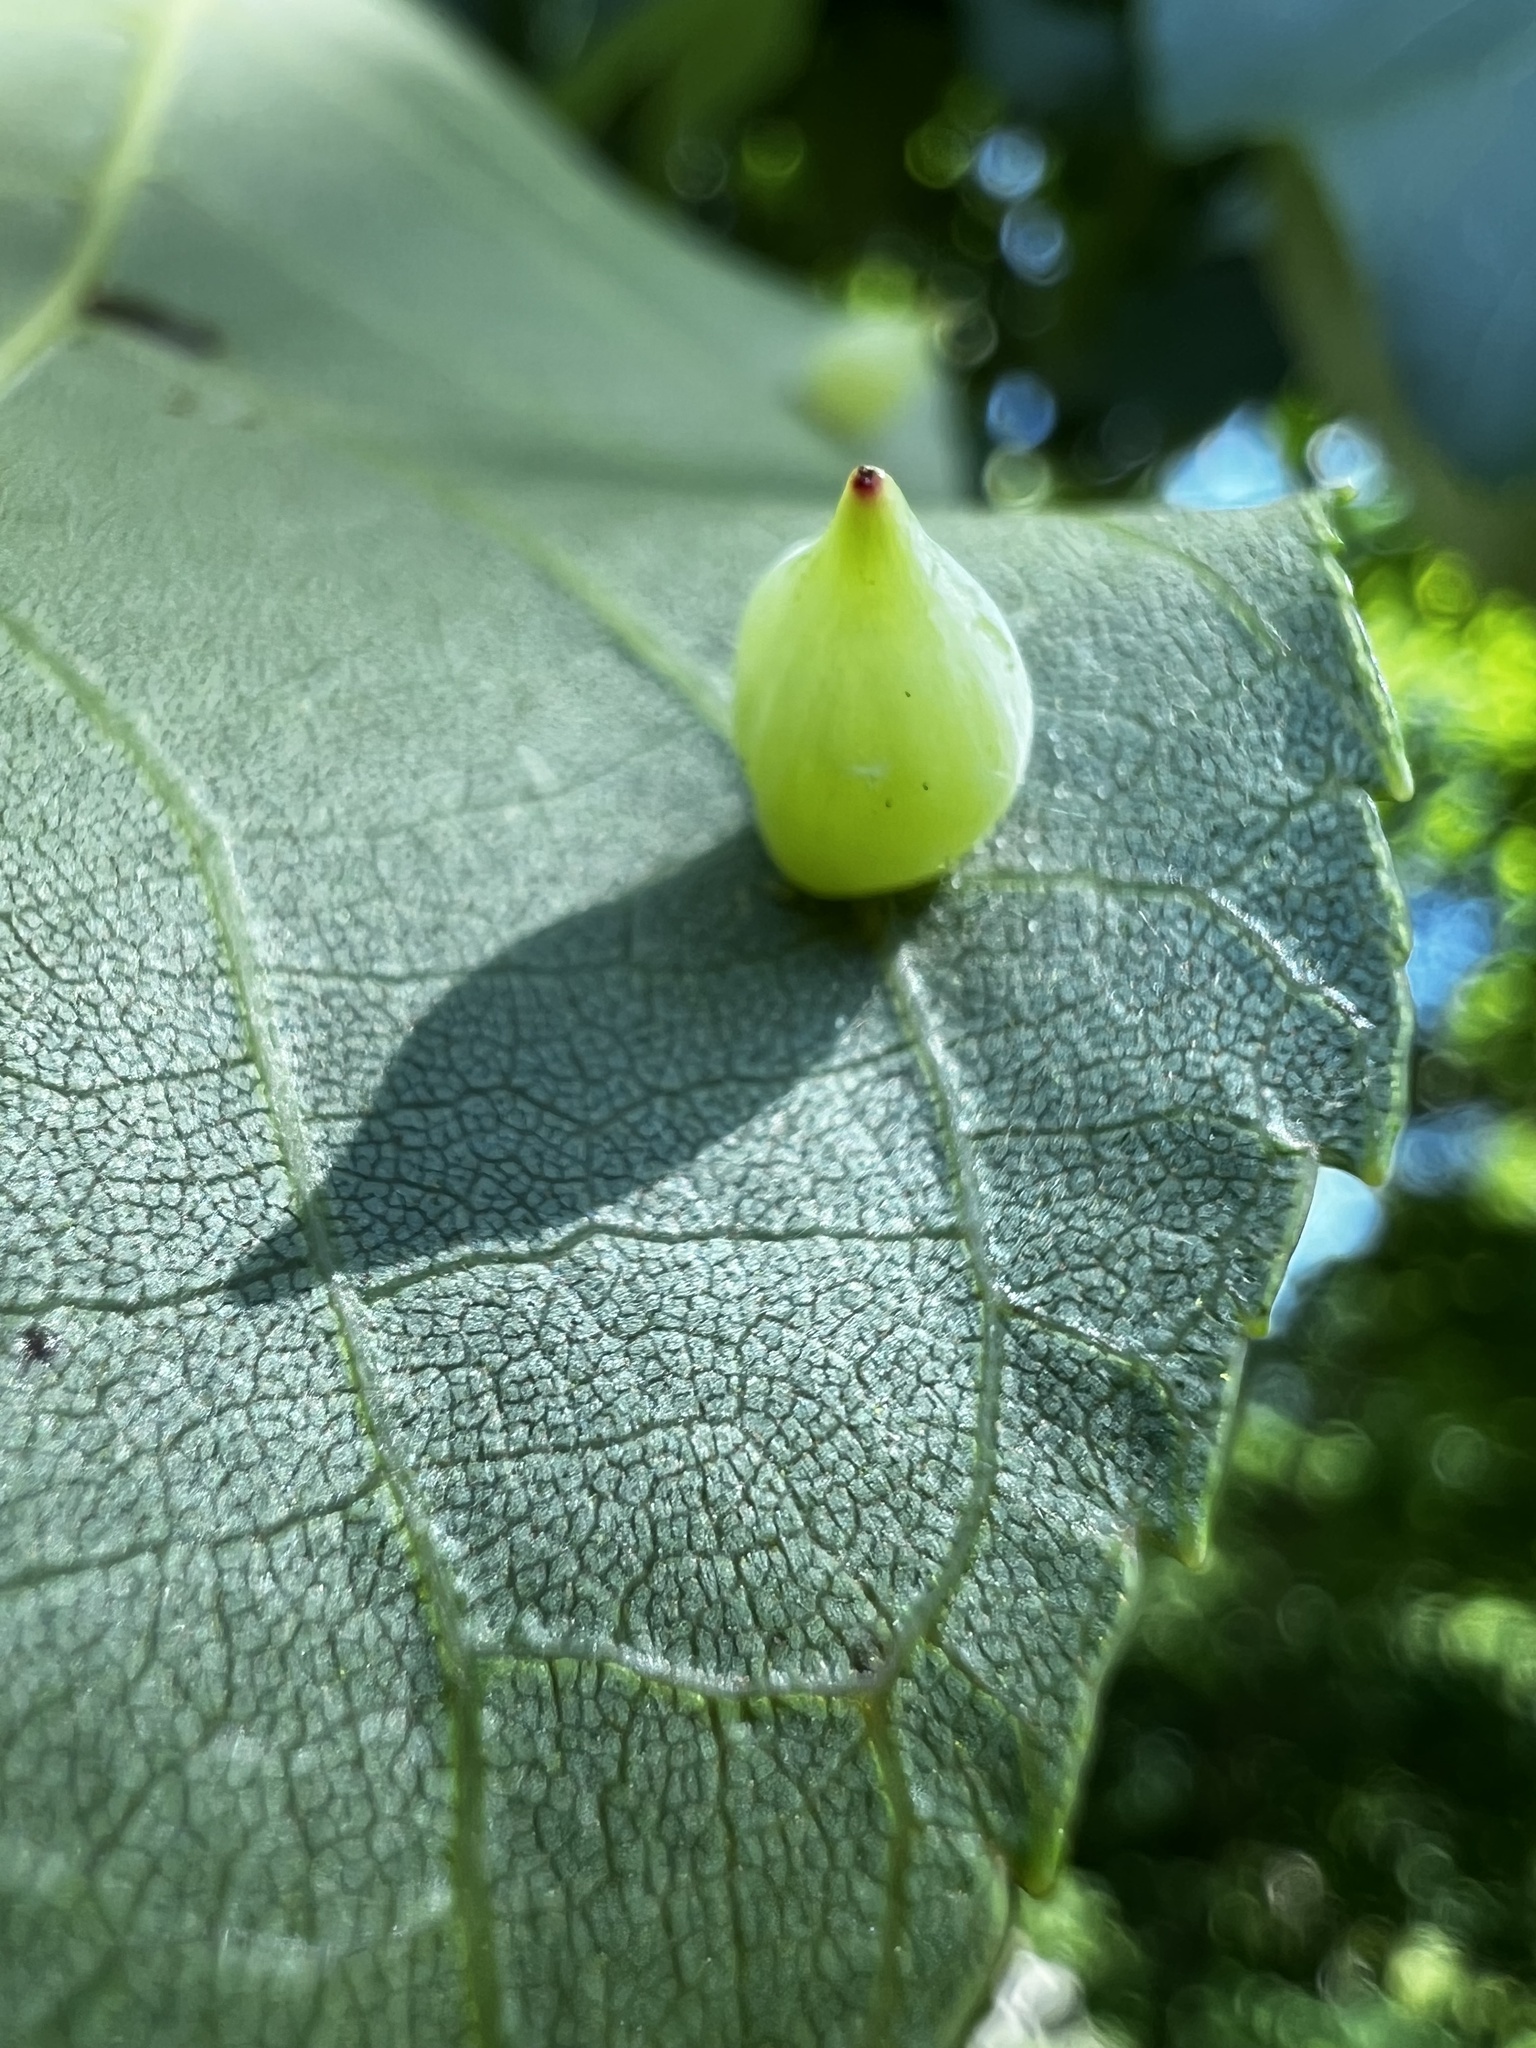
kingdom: Animalia
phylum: Arthropoda
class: Insecta
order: Diptera
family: Cecidomyiidae
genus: Caryomyia
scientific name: Caryomyia caryaecola
